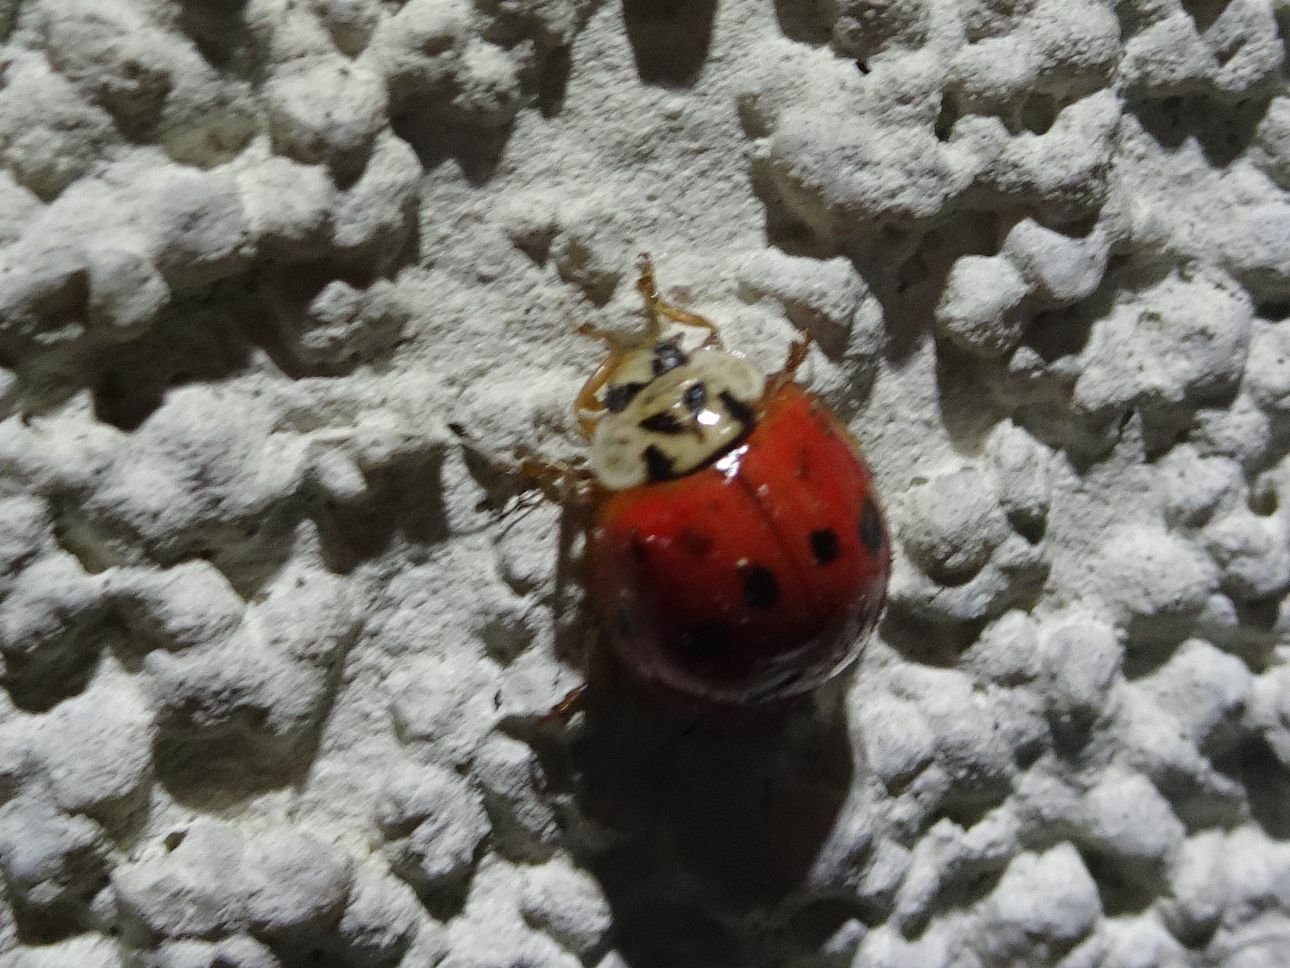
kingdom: Animalia
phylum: Arthropoda
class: Insecta
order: Coleoptera
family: Coccinellidae
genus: Harmonia
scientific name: Harmonia axyridis
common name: Harlequin ladybird
